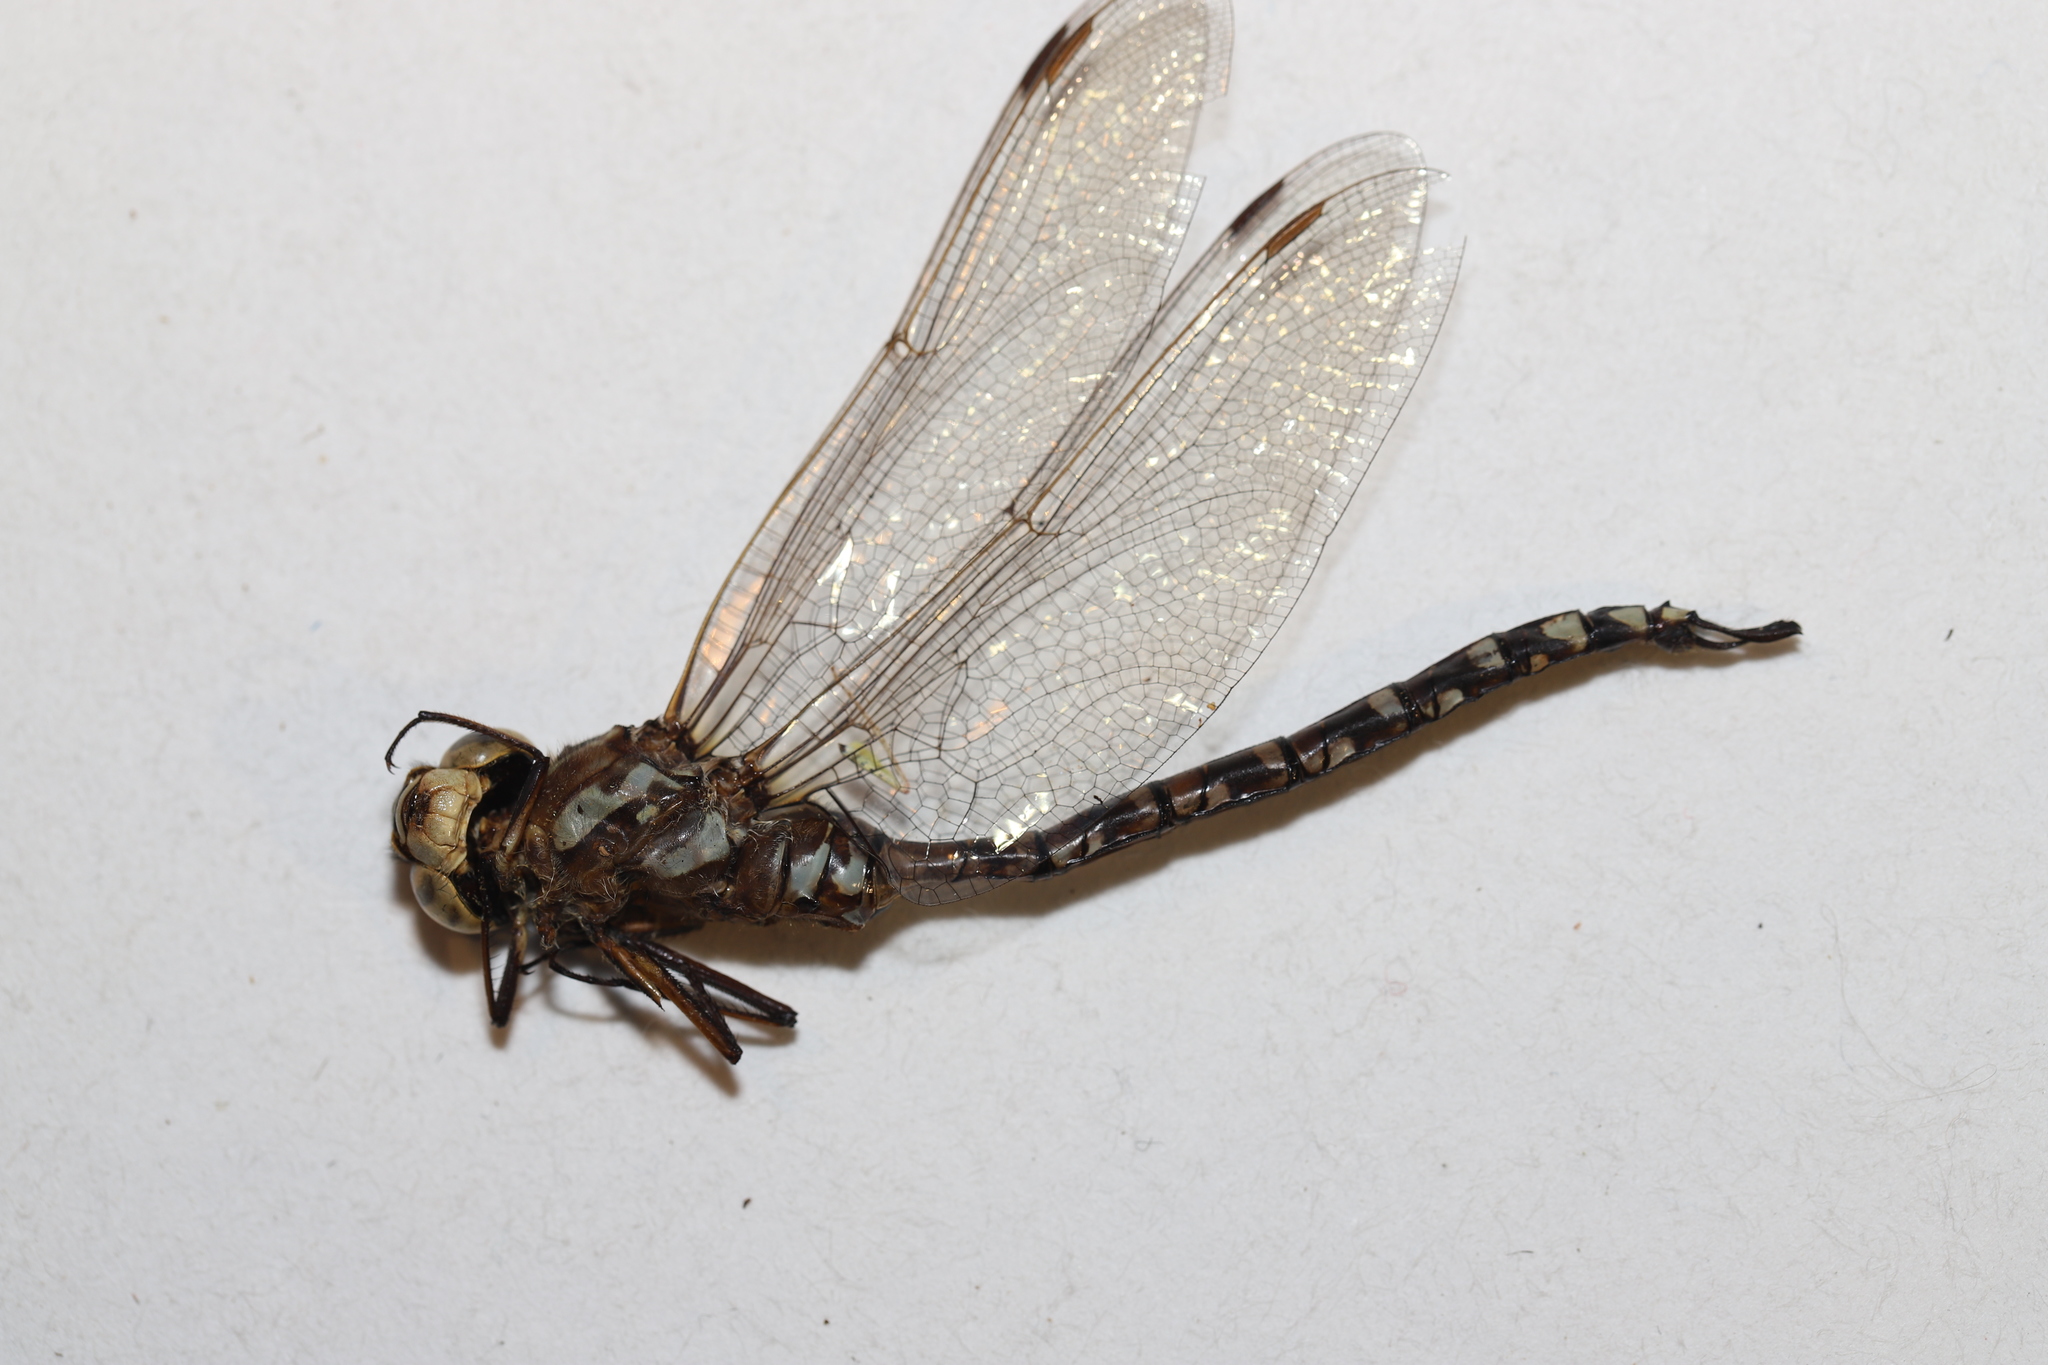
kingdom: Animalia
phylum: Arthropoda
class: Insecta
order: Odonata
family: Aeshnidae
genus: Aeshna
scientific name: Aeshna canadensis
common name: Canada darner
